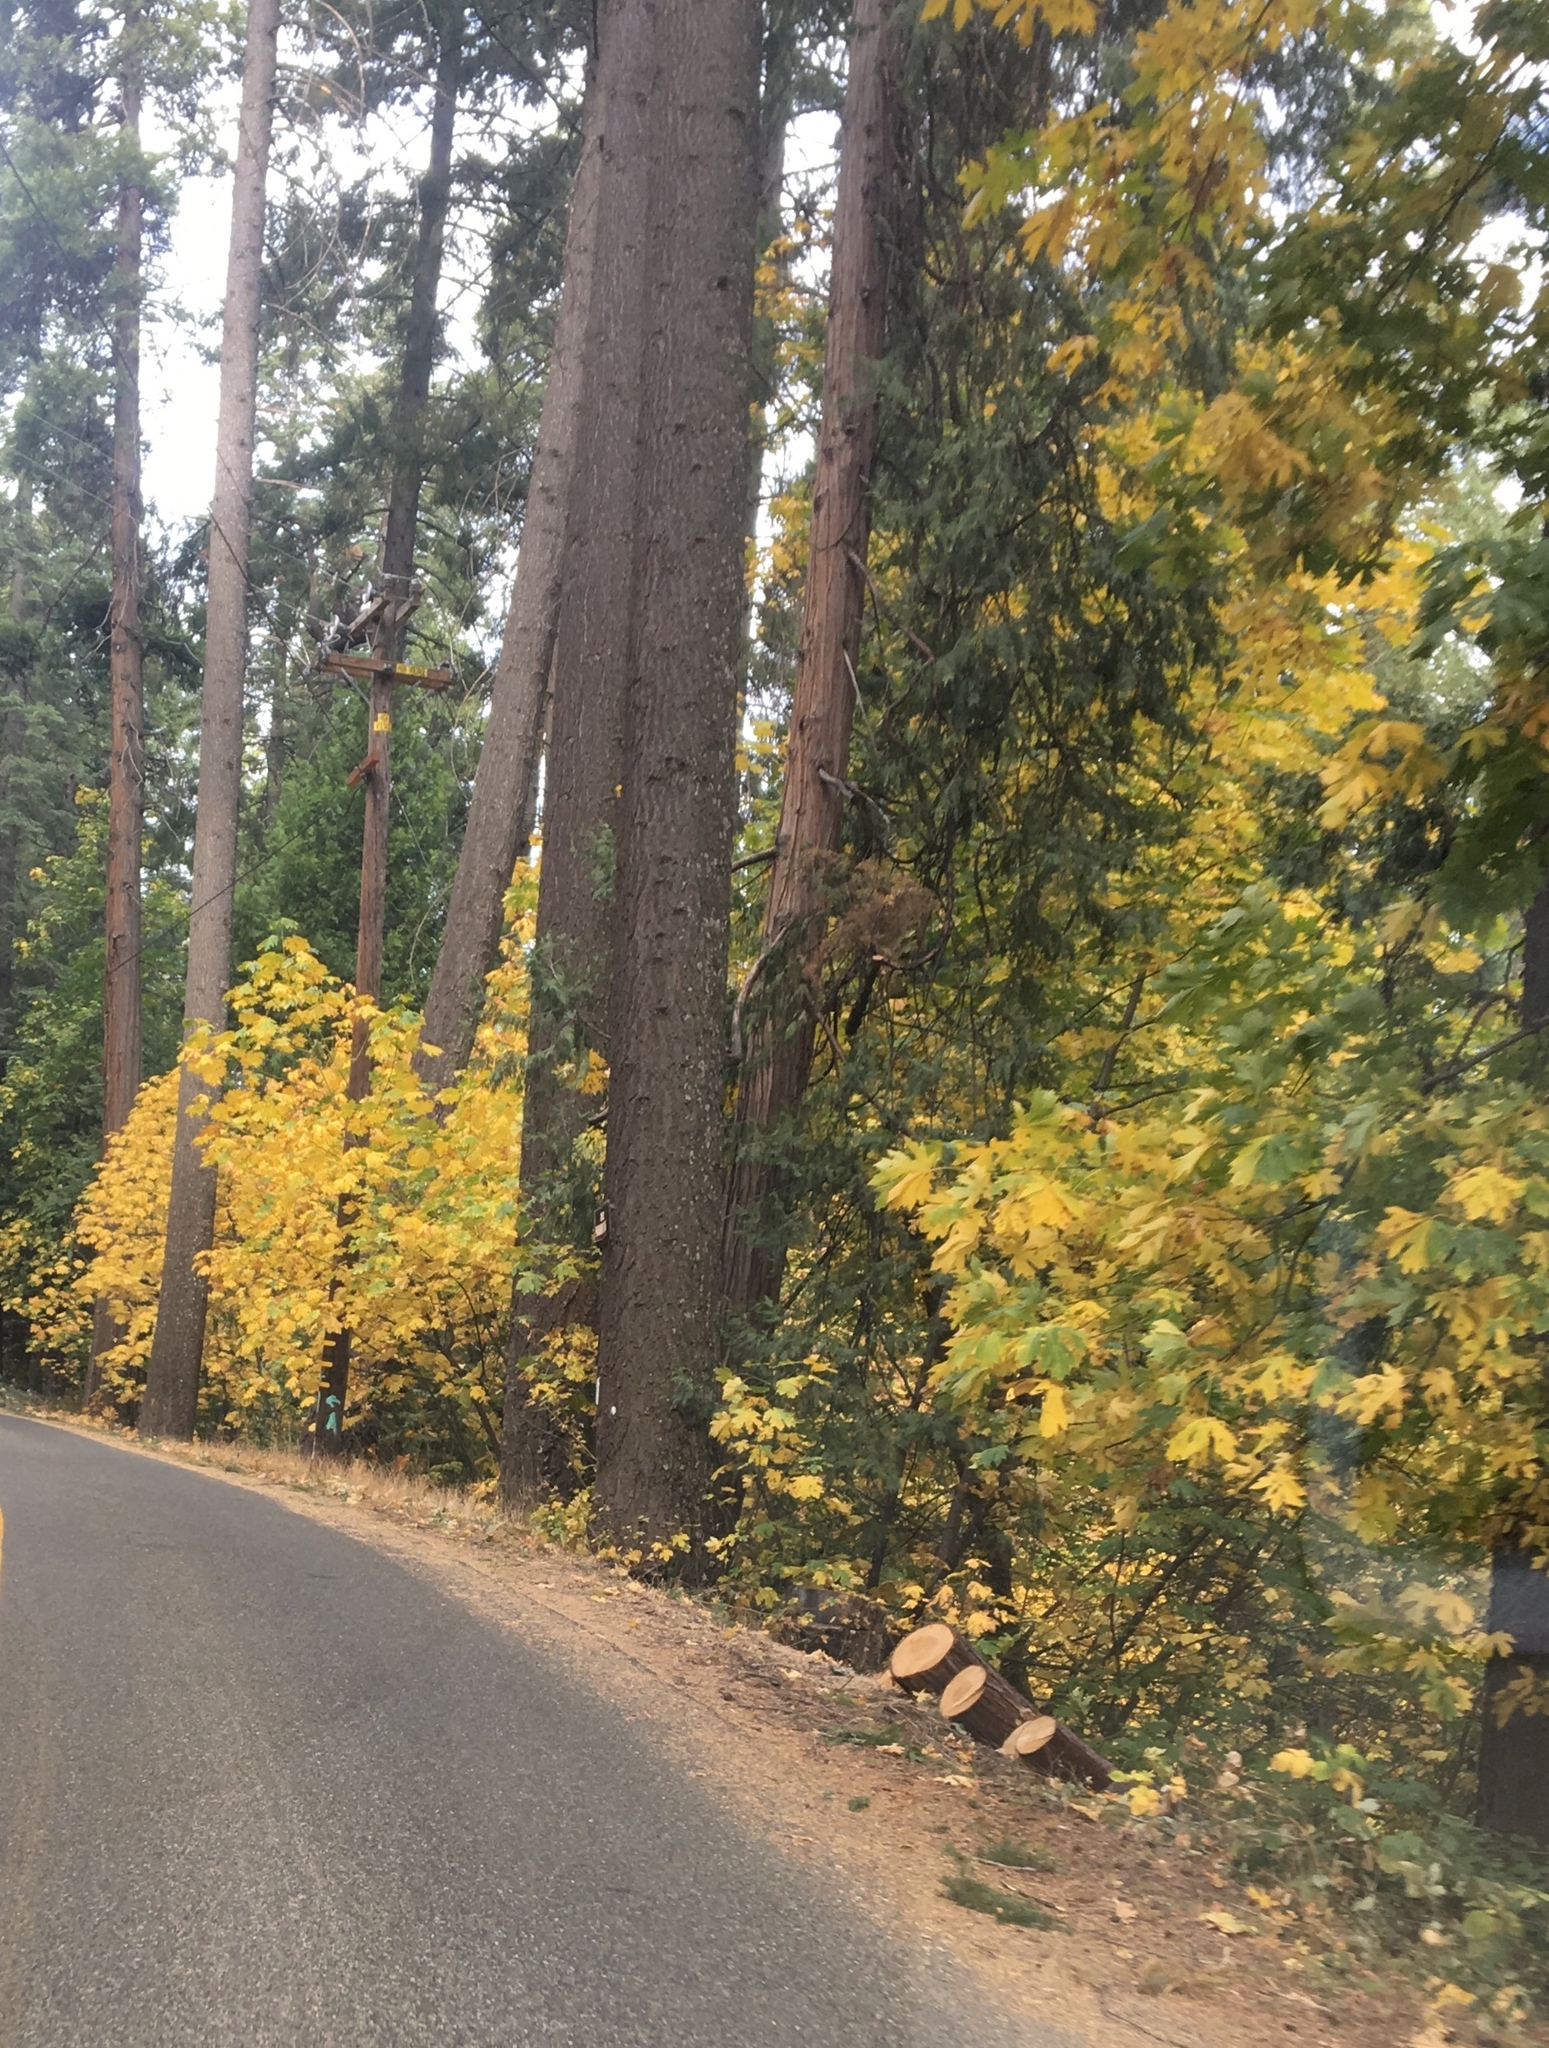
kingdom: Plantae
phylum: Tracheophyta
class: Magnoliopsida
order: Sapindales
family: Sapindaceae
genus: Acer
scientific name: Acer macrophyllum
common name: Oregon maple
